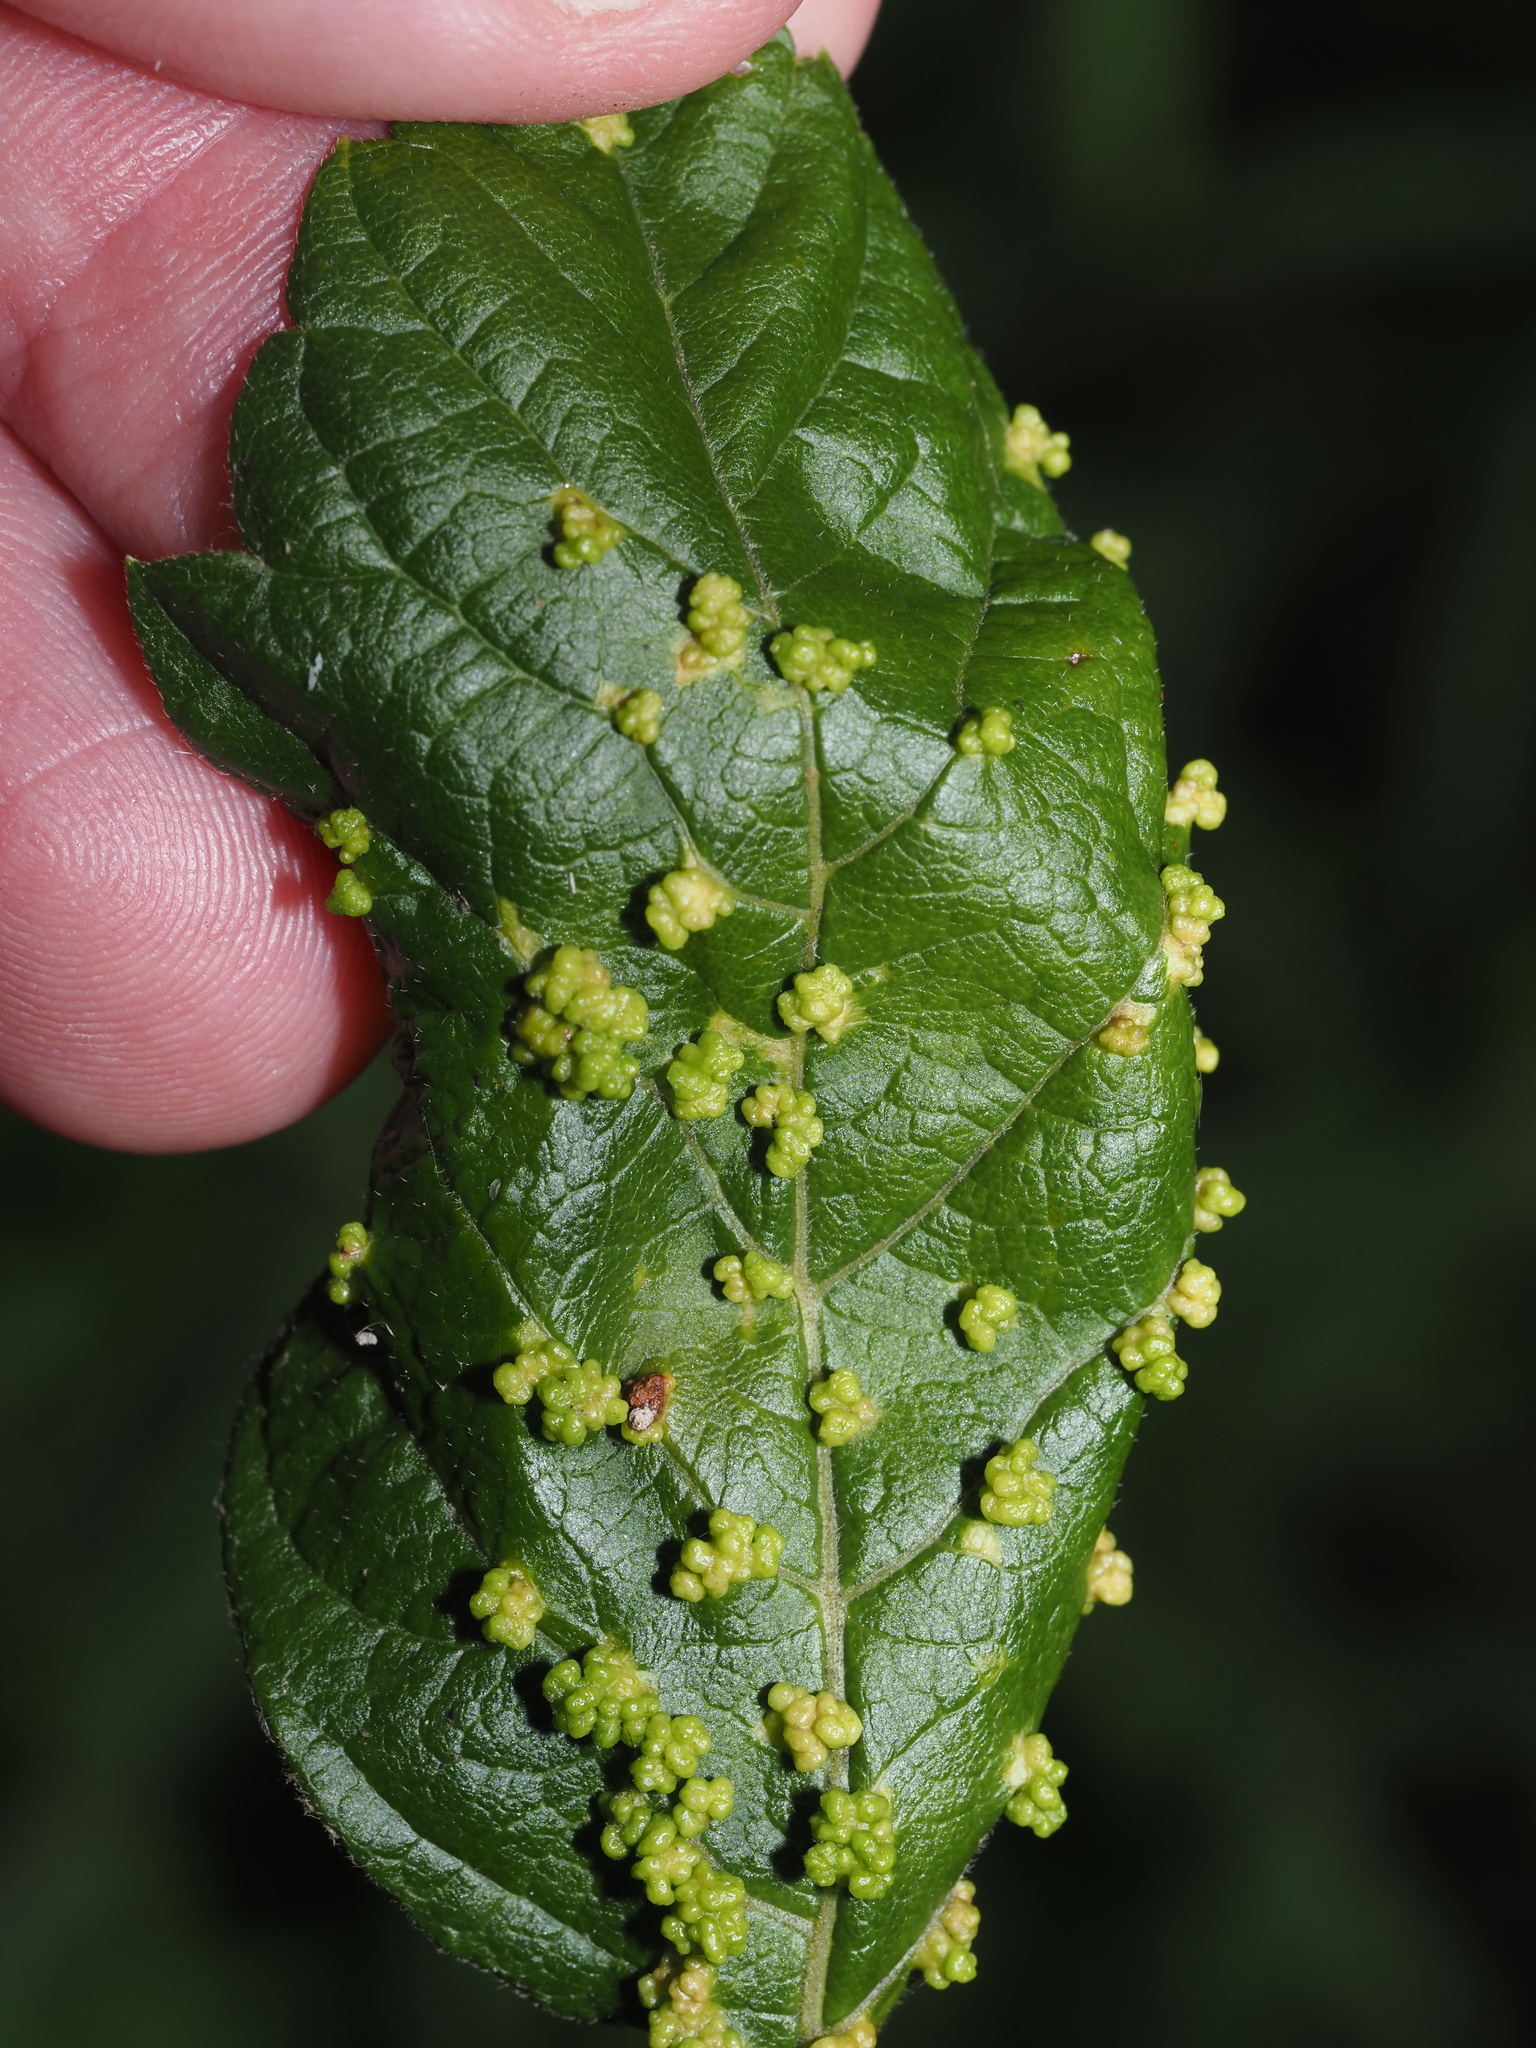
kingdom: Animalia
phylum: Arthropoda
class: Arachnida
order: Trombidiformes
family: Eriophyidae
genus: Aceria
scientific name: Aceria
